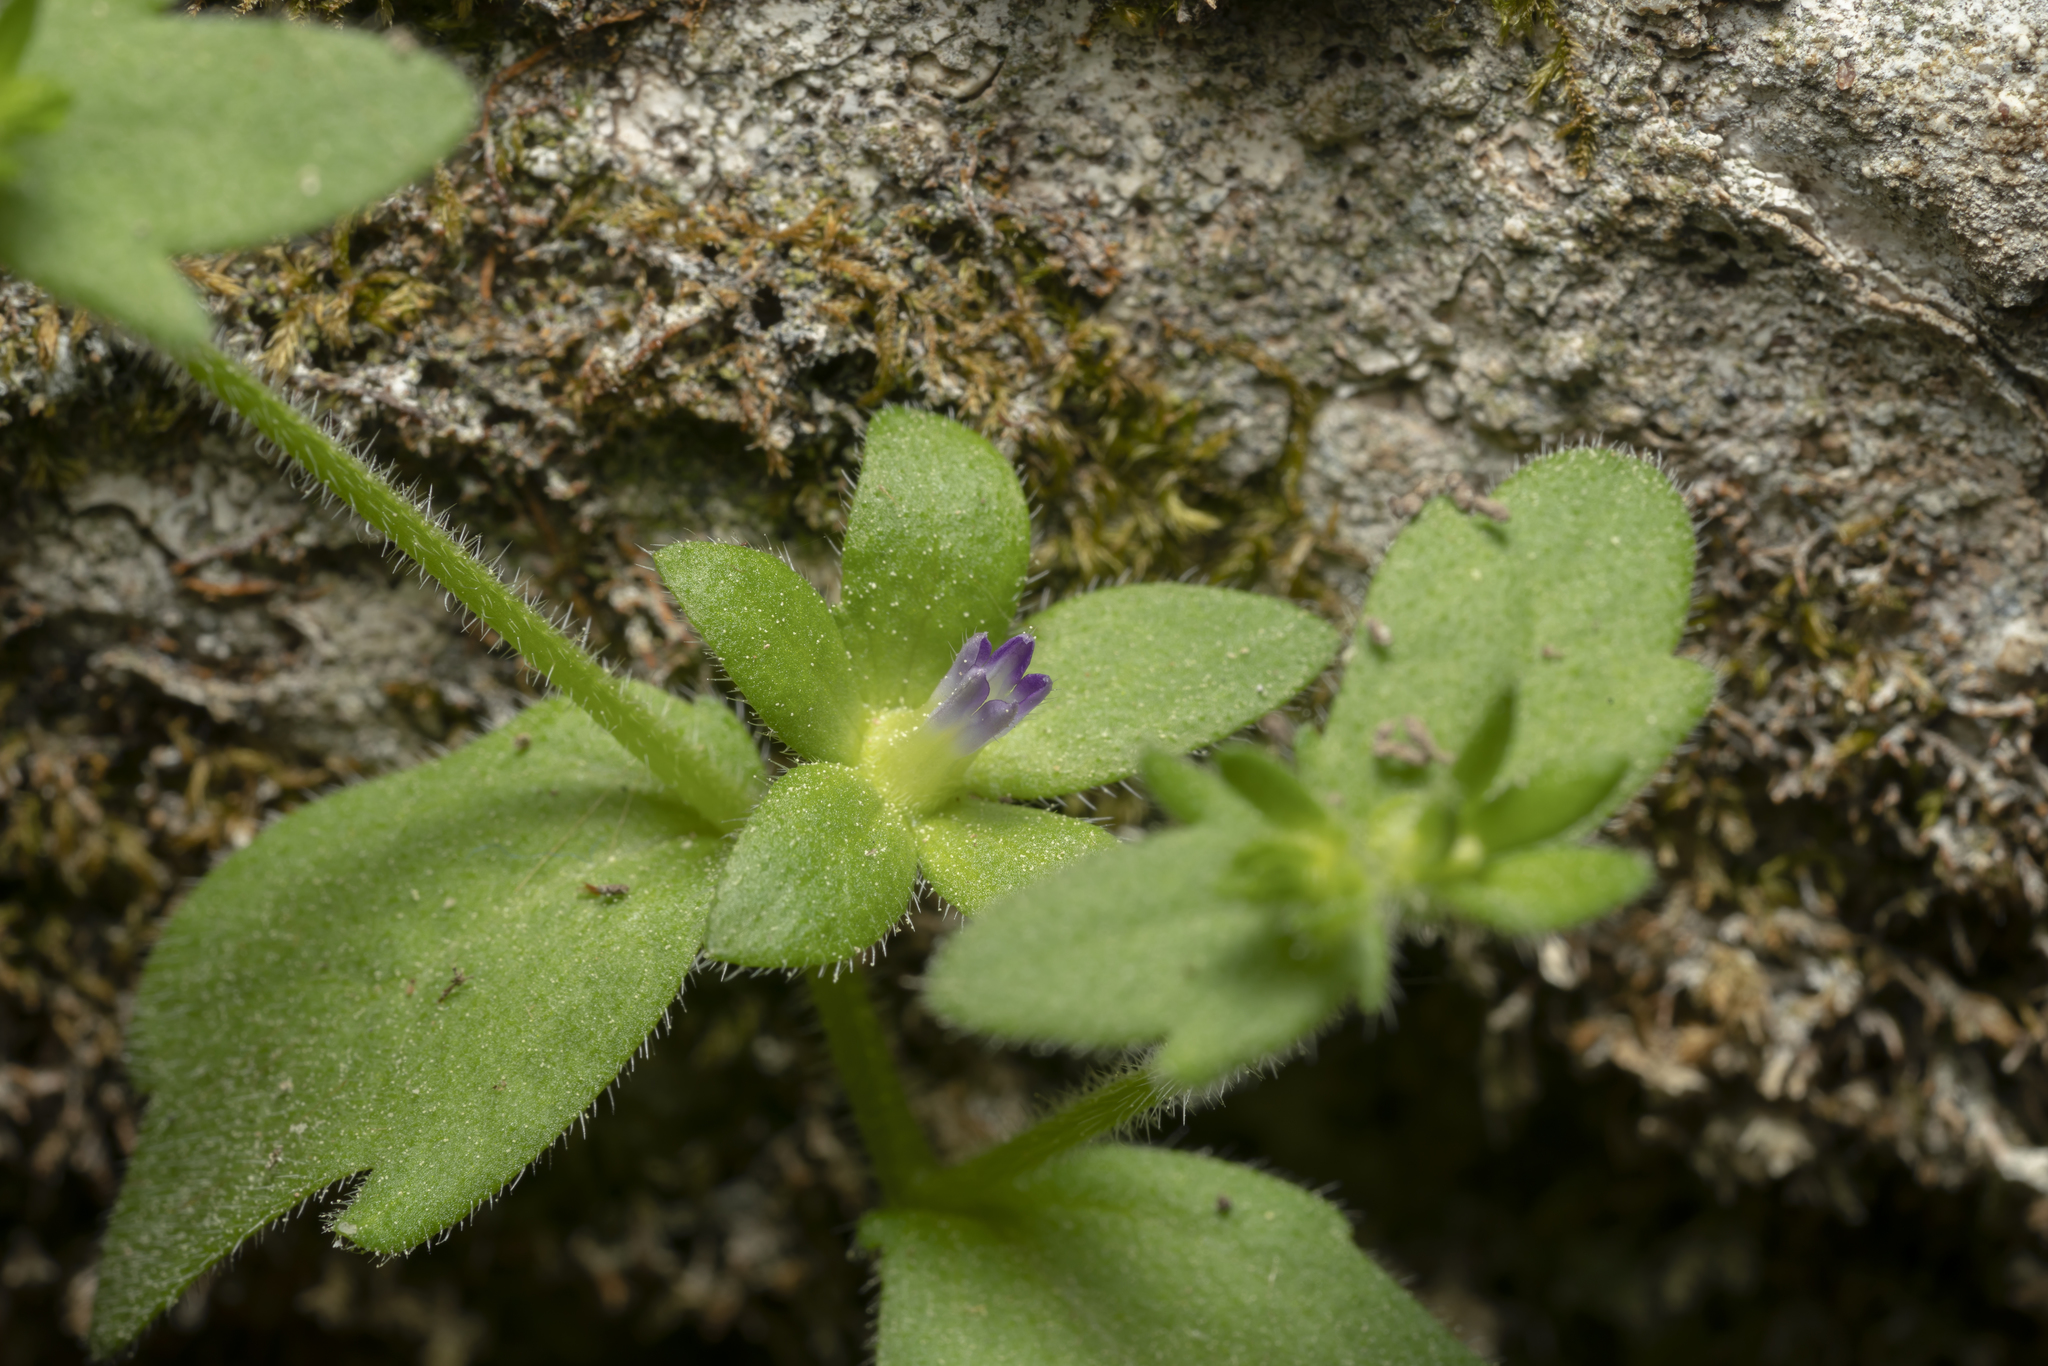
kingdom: Plantae
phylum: Tracheophyta
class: Magnoliopsida
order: Asterales
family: Campanulaceae
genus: Campanula
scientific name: Campanula erinus
